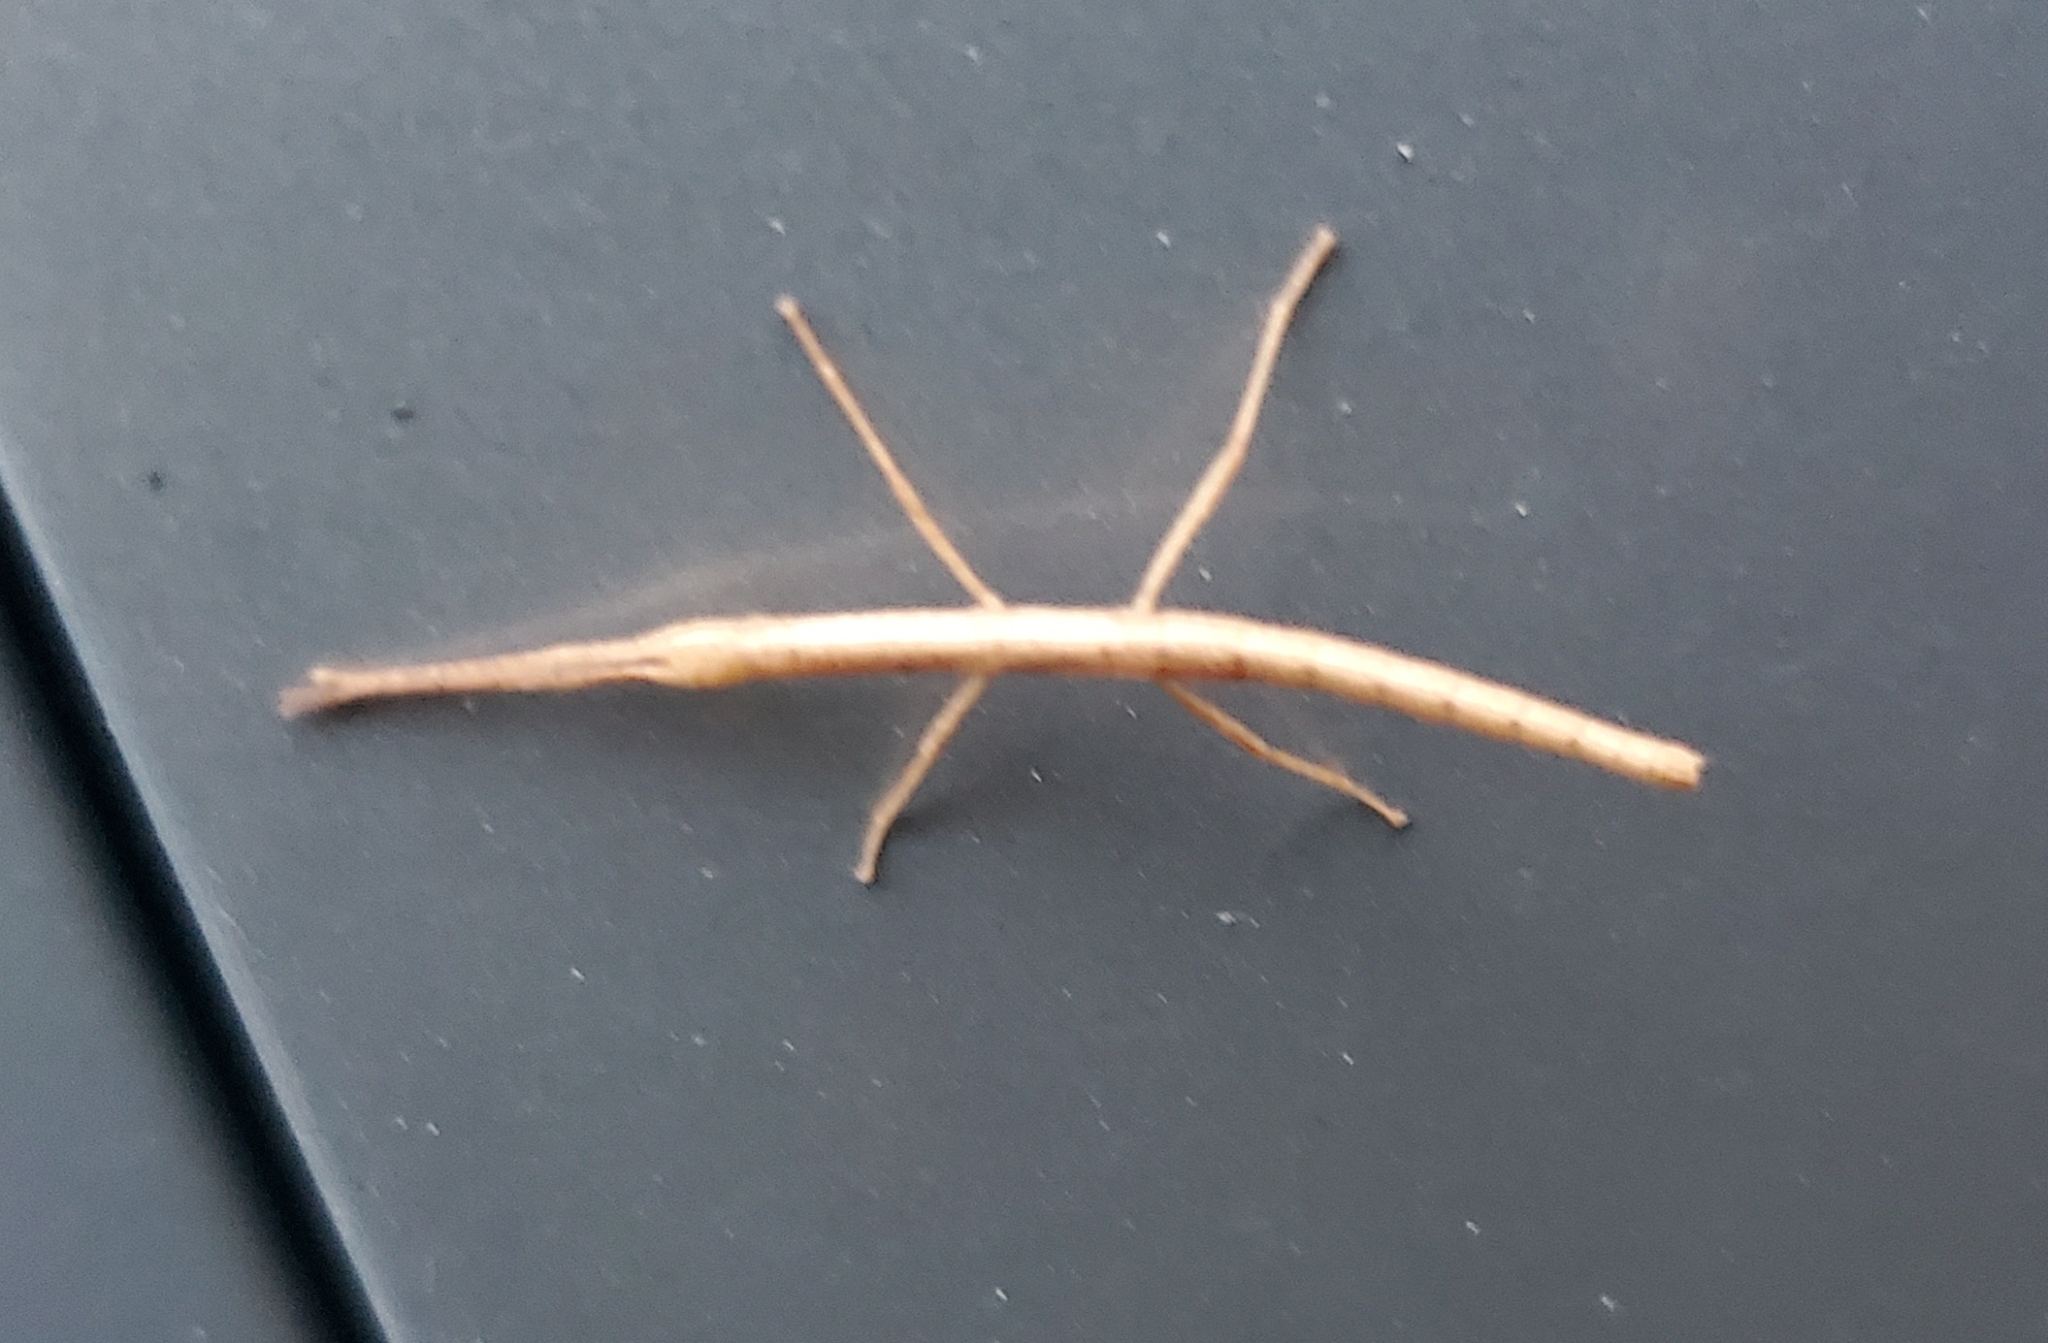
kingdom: Animalia
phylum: Arthropoda
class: Insecta
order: Phasmida
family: Lonchodidae
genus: Carausius
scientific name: Carausius morosus
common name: Indian stick insect
